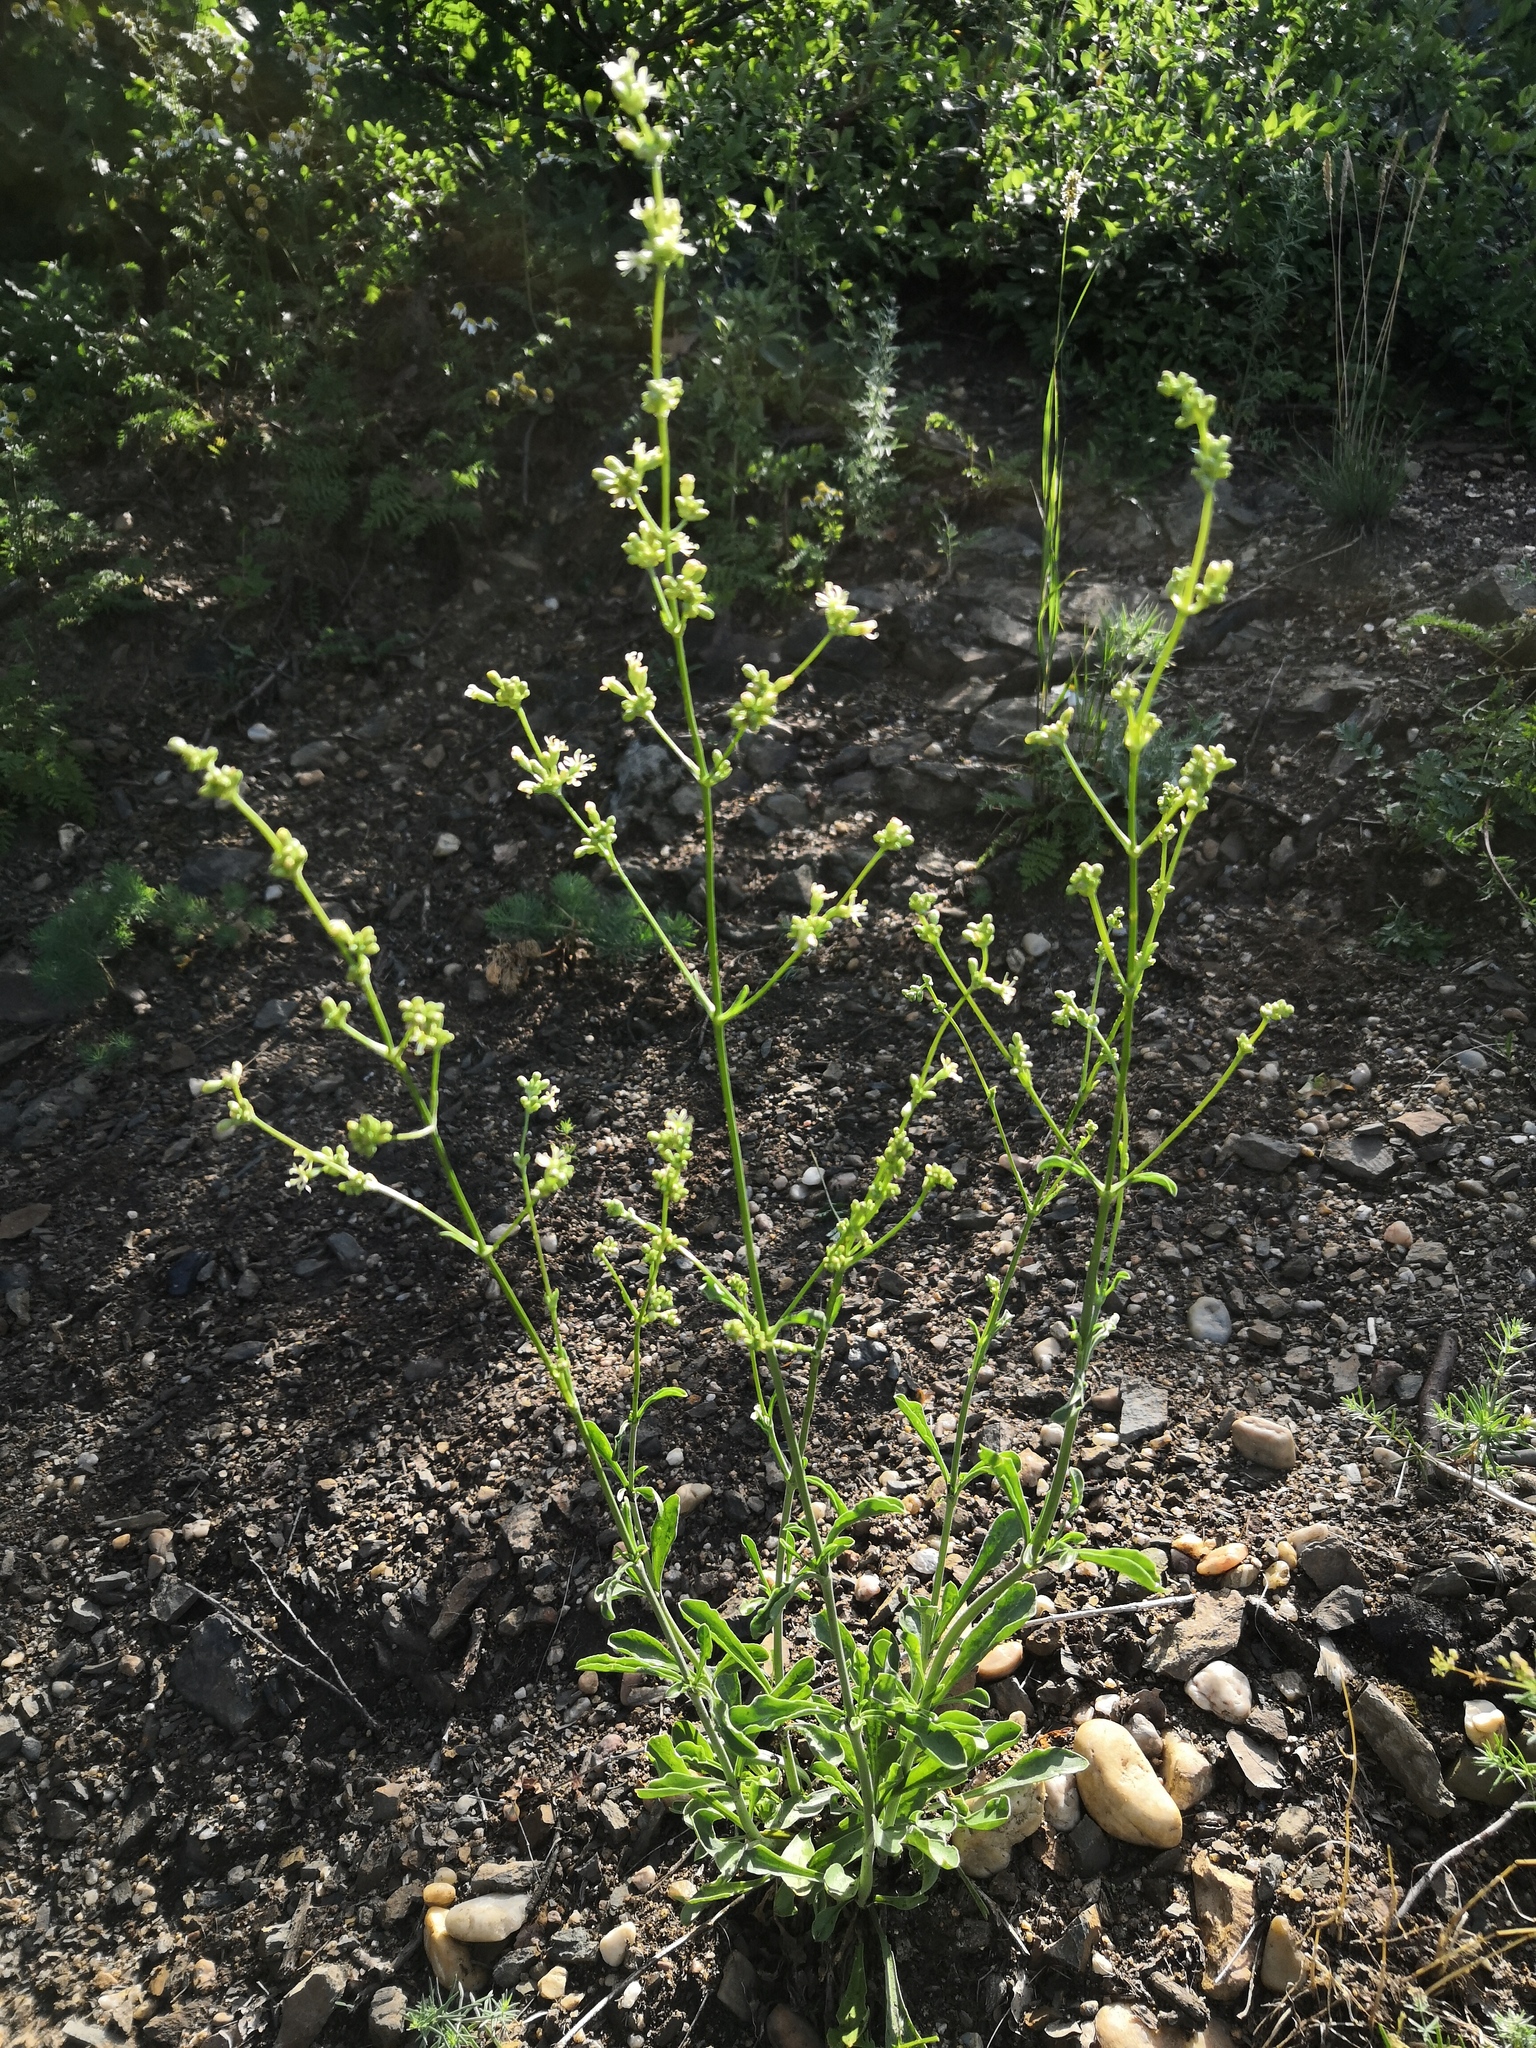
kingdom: Plantae
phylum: Tracheophyta
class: Magnoliopsida
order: Caryophyllales
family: Caryophyllaceae
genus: Silene
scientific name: Silene otites
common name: Spanish catchfly
